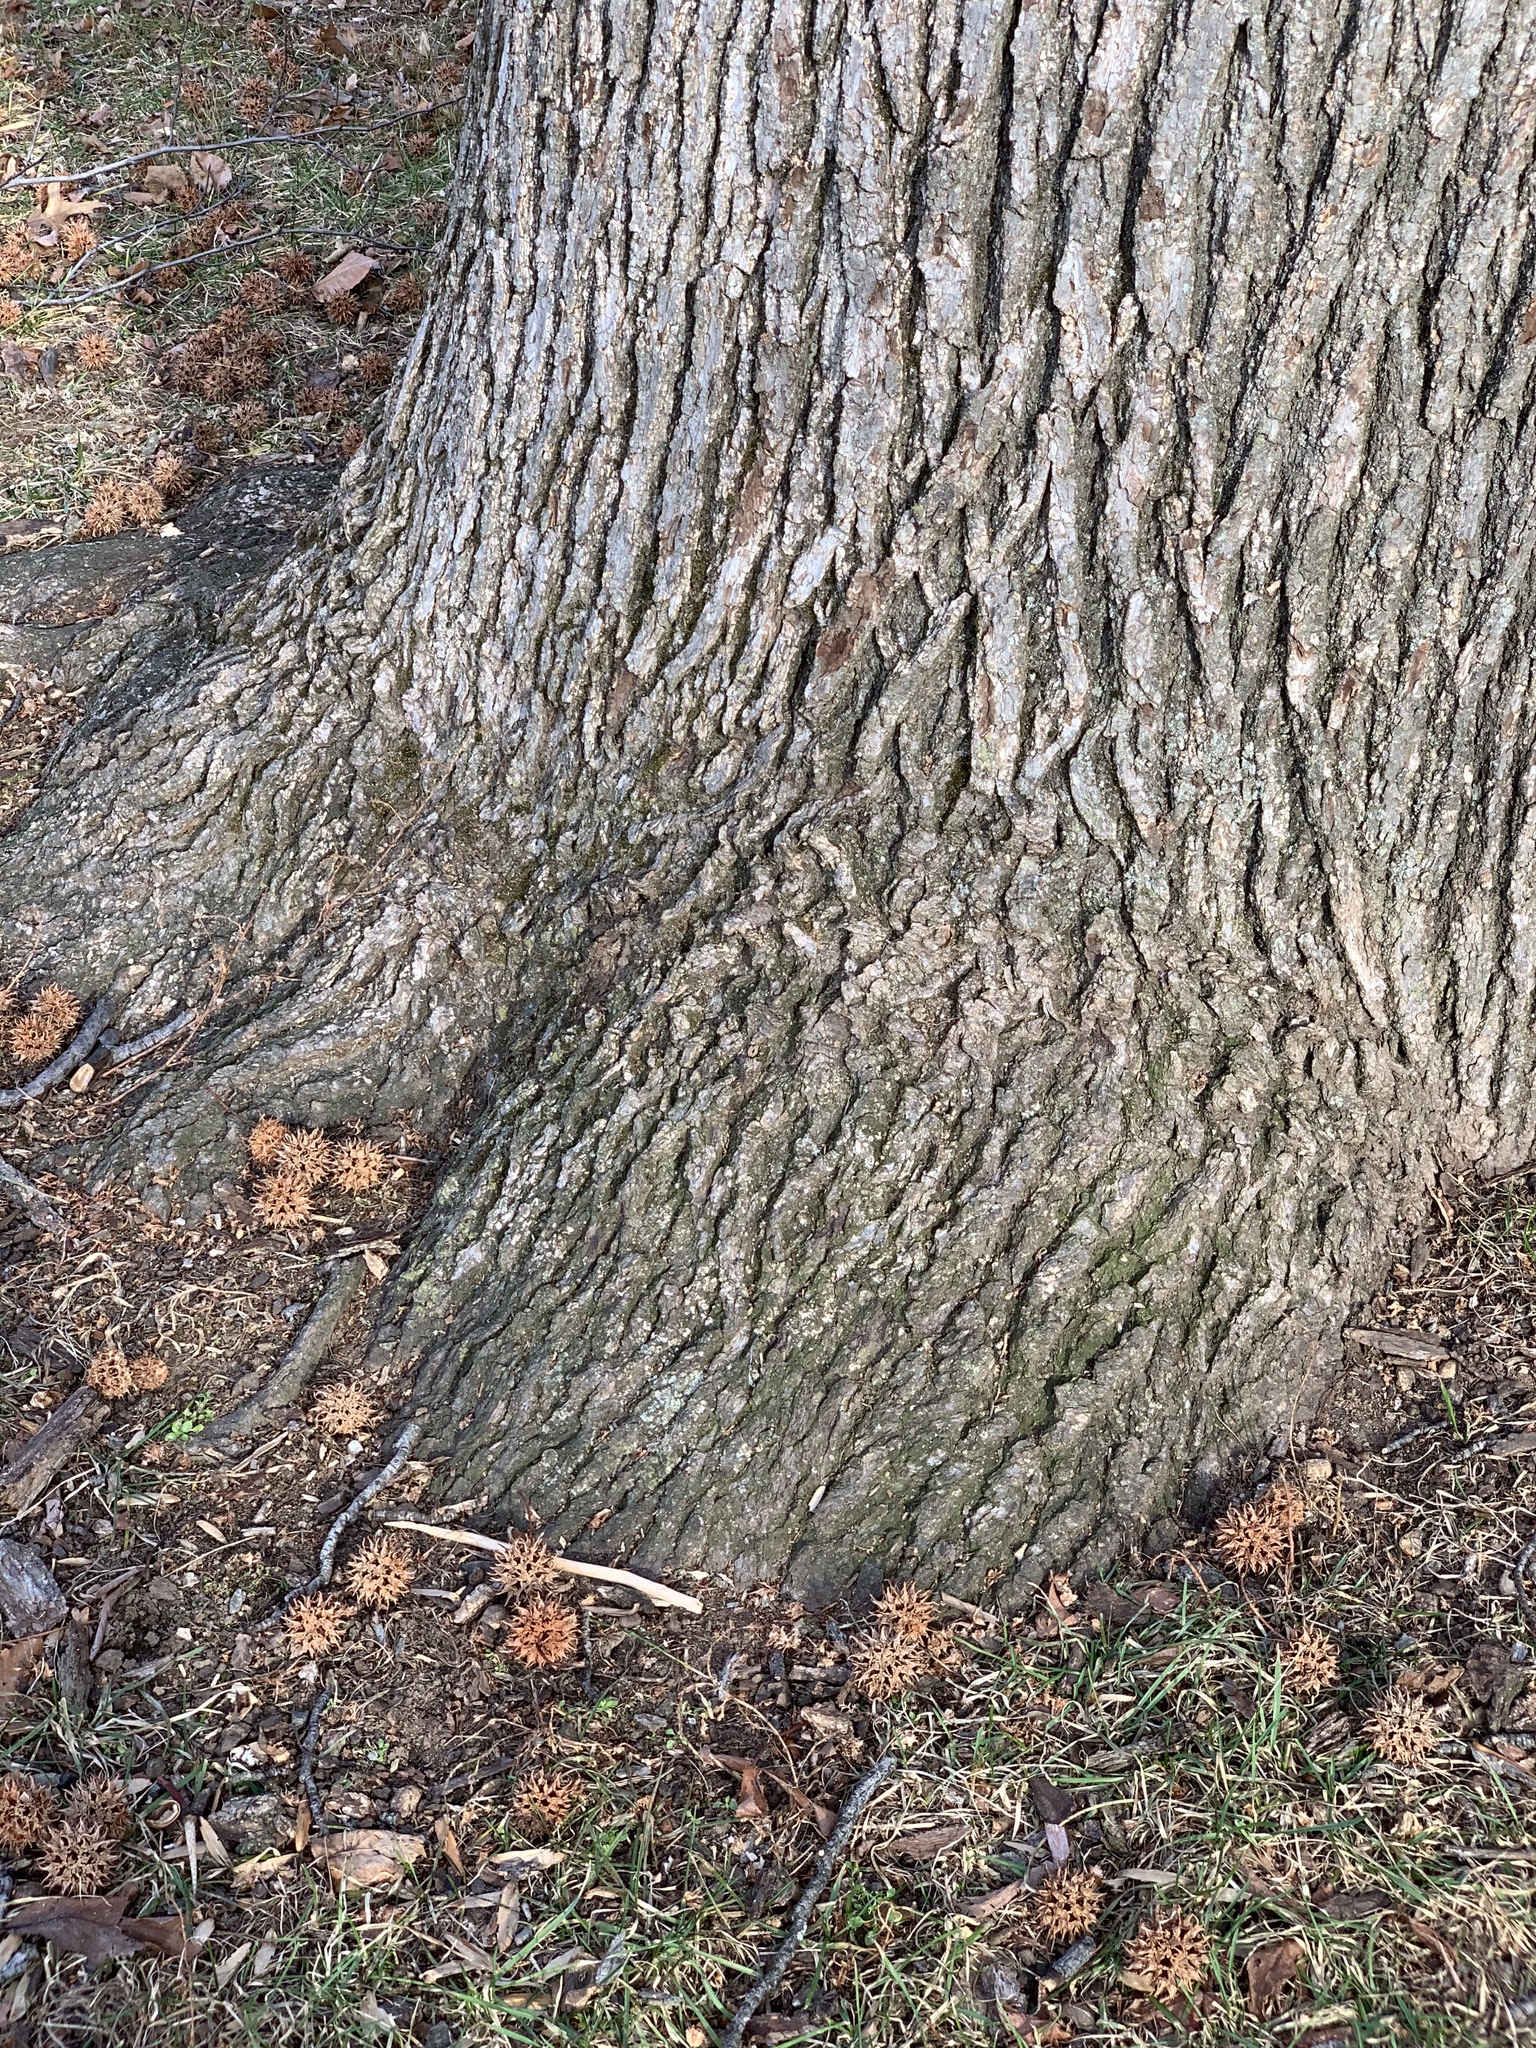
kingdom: Plantae
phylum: Tracheophyta
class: Magnoliopsida
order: Saxifragales
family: Altingiaceae
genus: Liquidambar
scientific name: Liquidambar styraciflua
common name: Sweet gum
